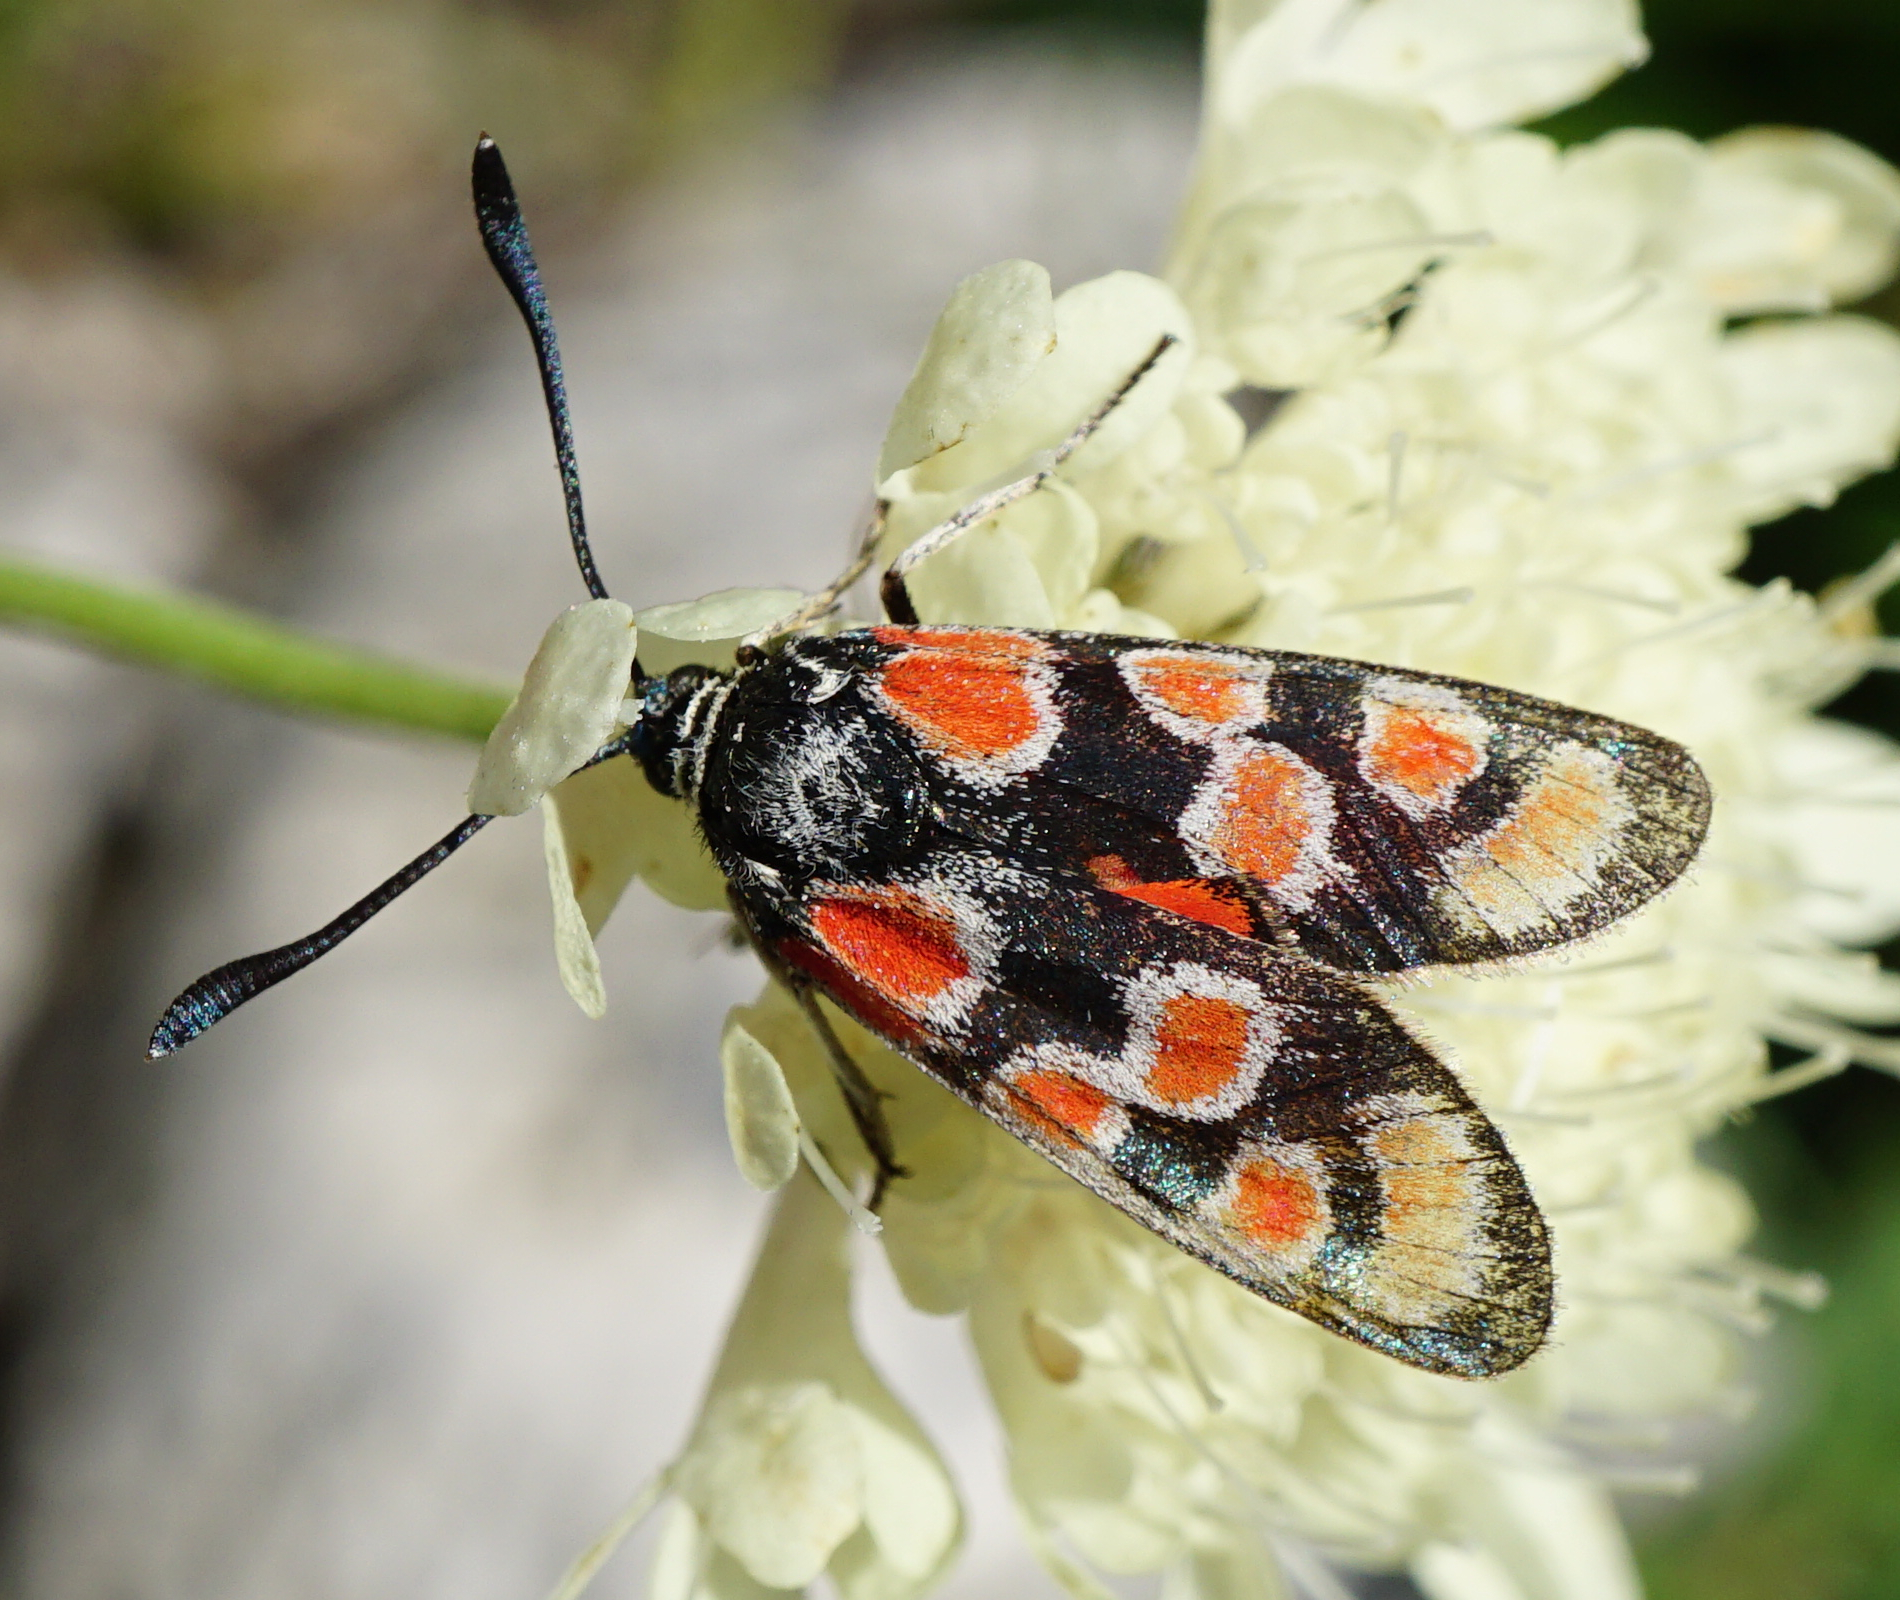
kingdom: Animalia
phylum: Arthropoda
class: Insecta
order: Lepidoptera
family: Zygaenidae
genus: Zygaena
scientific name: Zygaena carniolica
